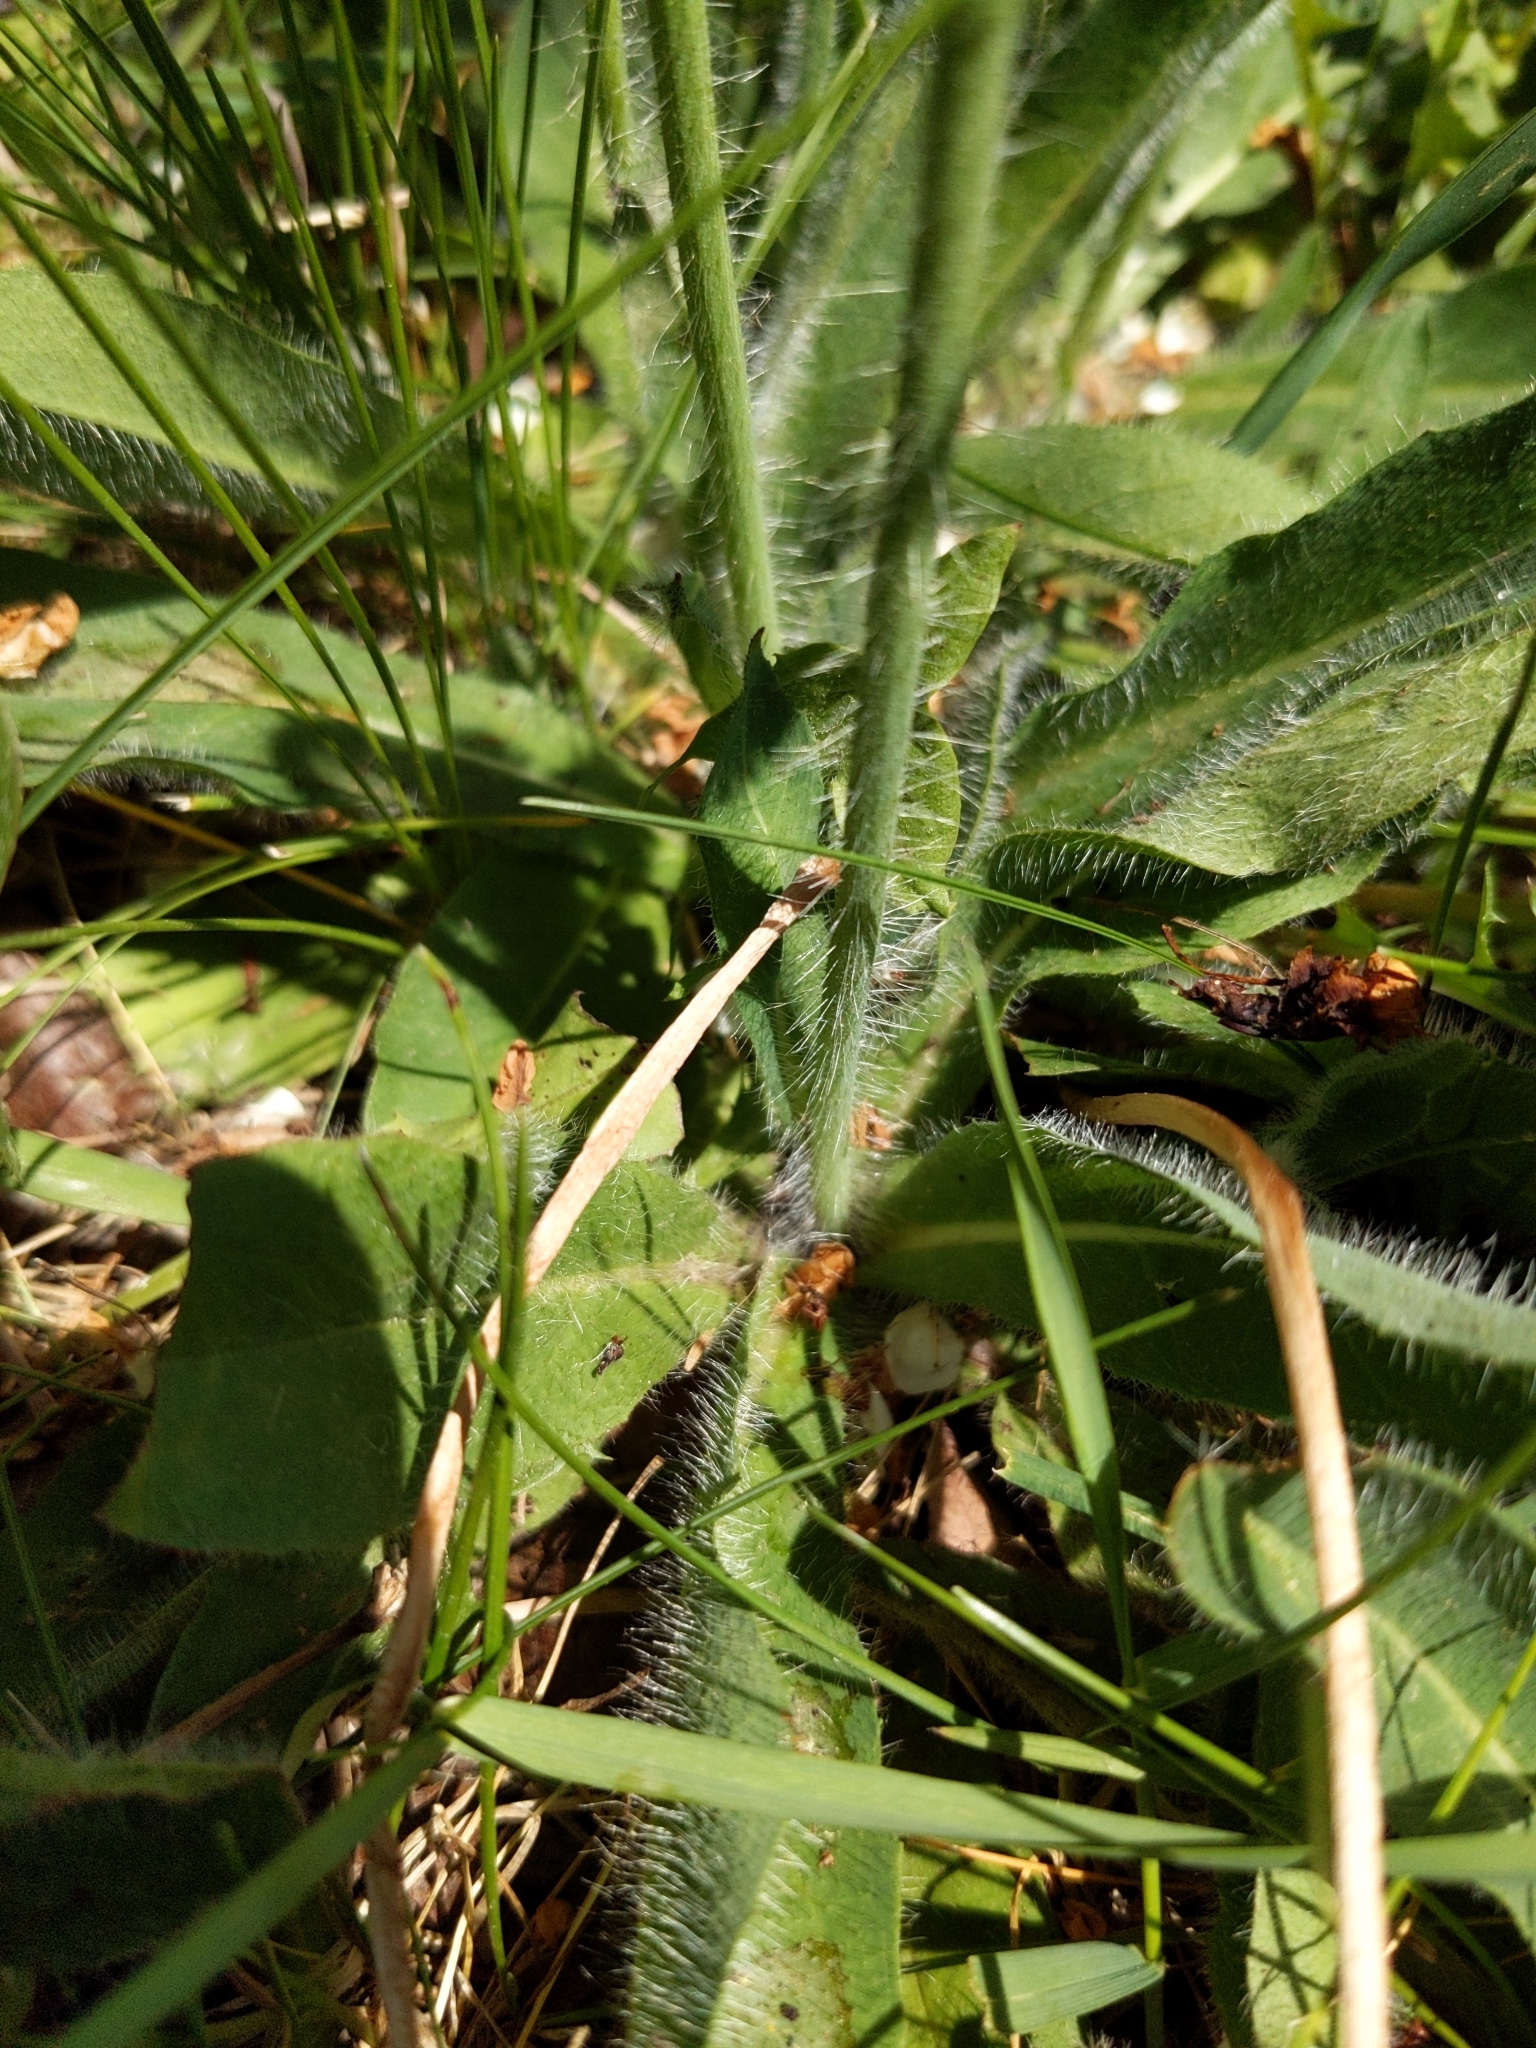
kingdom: Plantae
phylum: Tracheophyta
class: Magnoliopsida
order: Asterales
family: Asteraceae
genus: Pilosella
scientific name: Pilosella aurantiaca
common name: Fox-and-cubs
